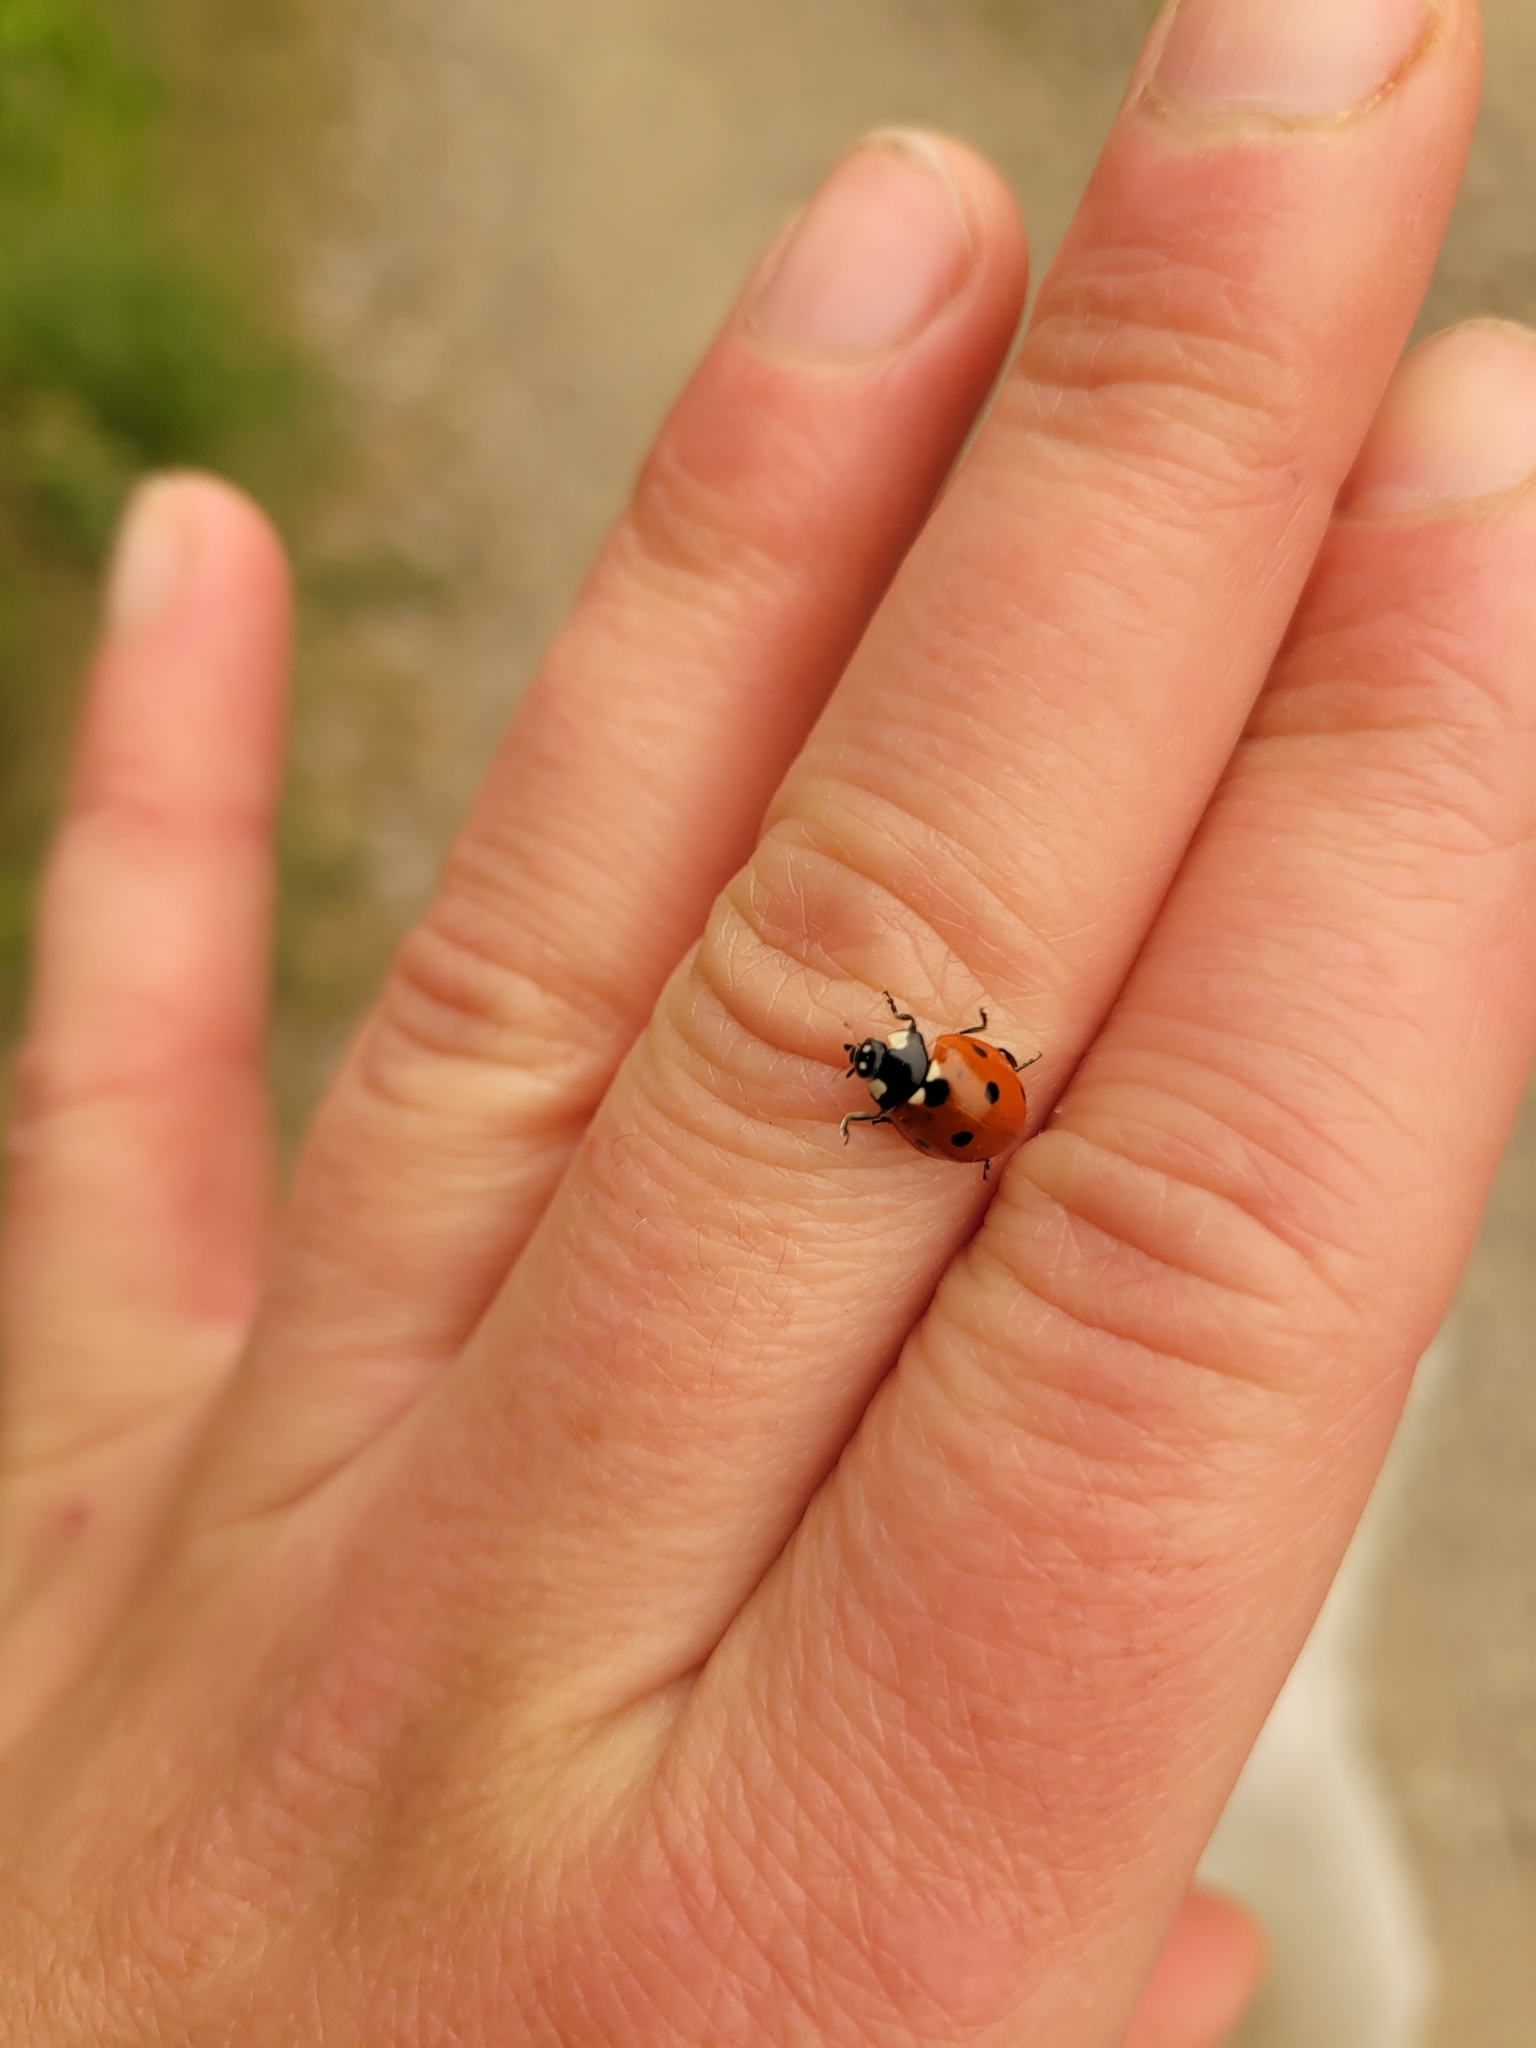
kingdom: Animalia
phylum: Arthropoda
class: Insecta
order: Coleoptera
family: Coccinellidae
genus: Coccinella
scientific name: Coccinella septempunctata
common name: Sevenspotted lady beetle
